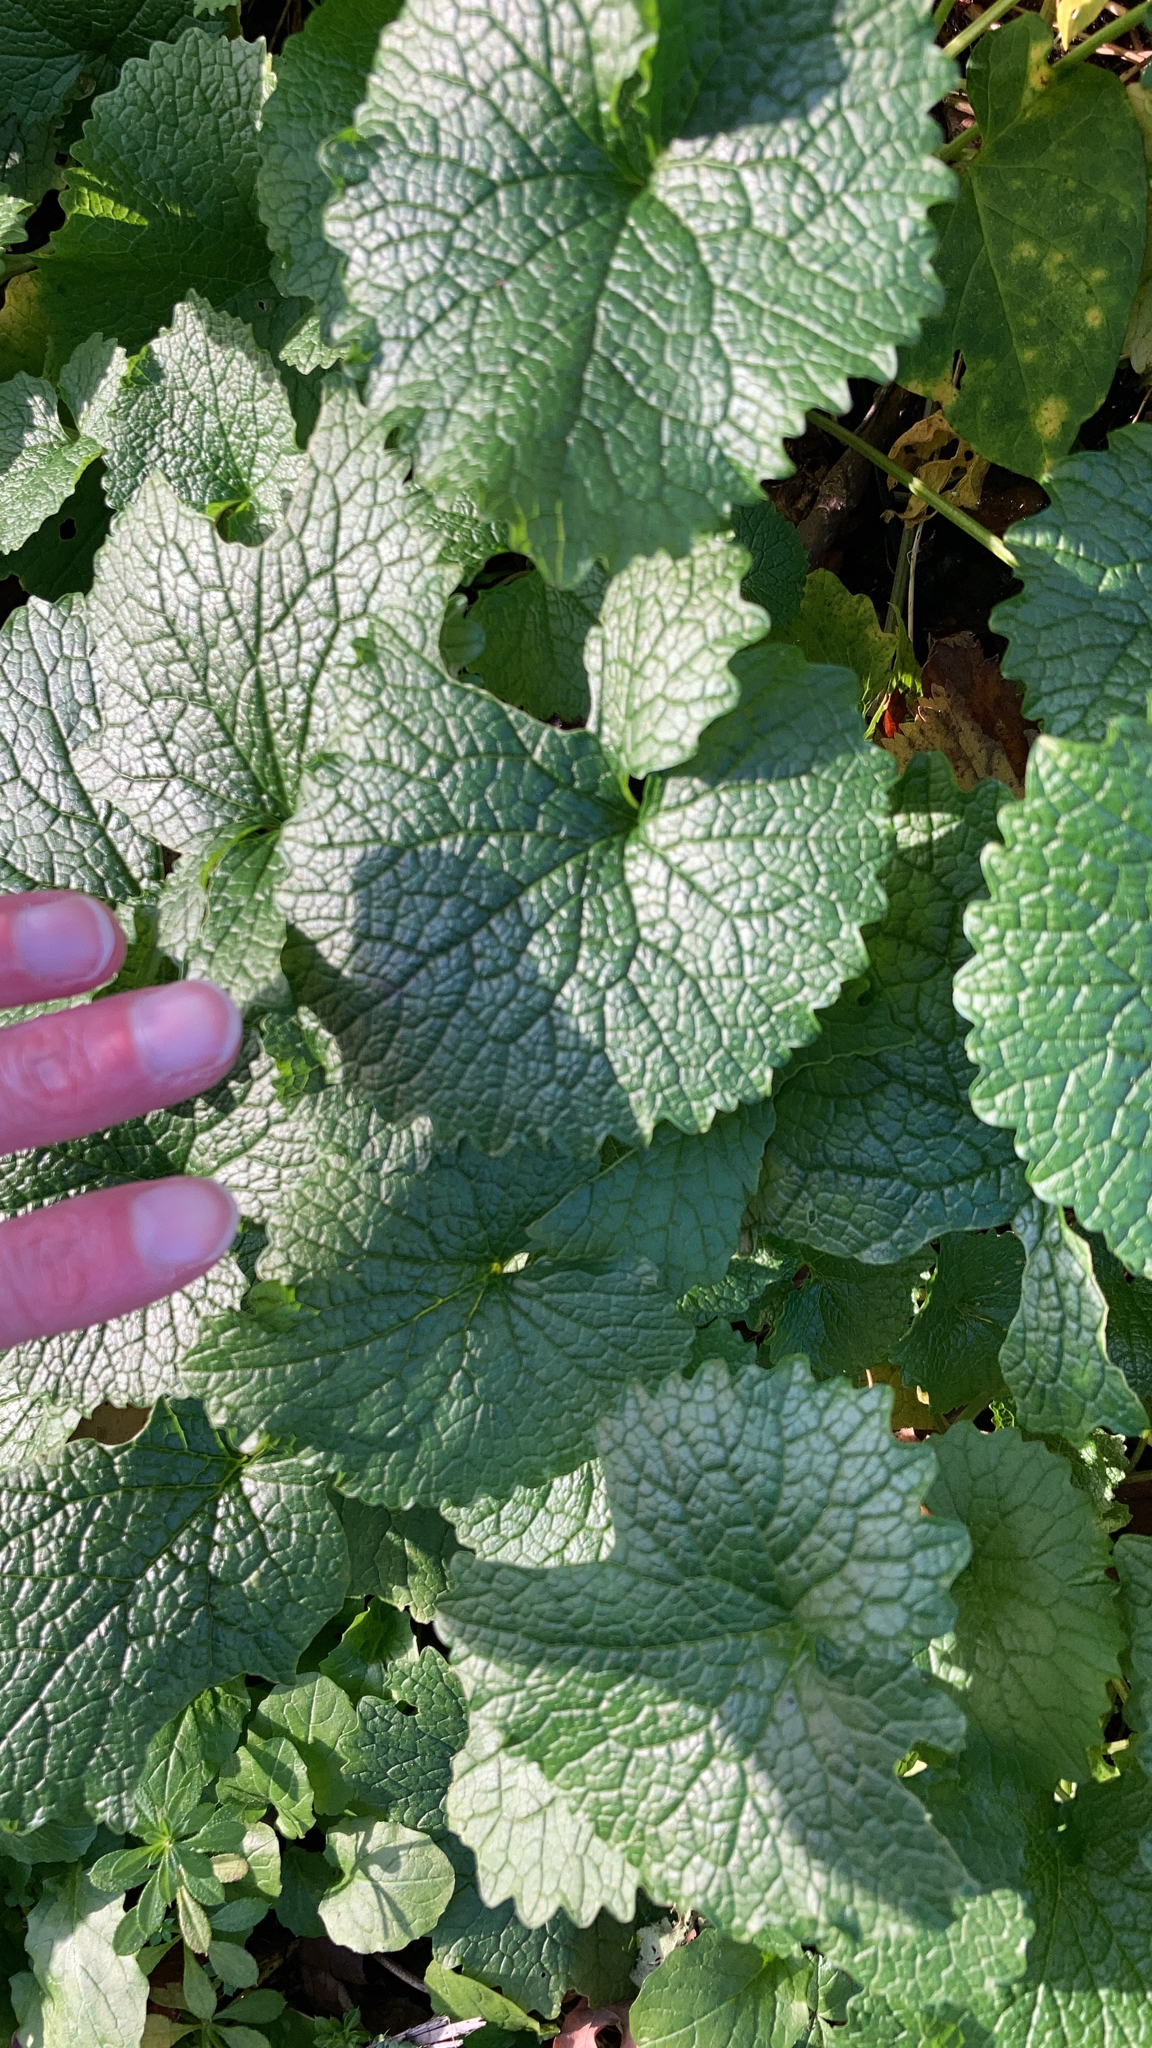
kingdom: Plantae
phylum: Tracheophyta
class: Magnoliopsida
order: Brassicales
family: Brassicaceae
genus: Alliaria
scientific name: Alliaria petiolata
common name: Garlic mustard
